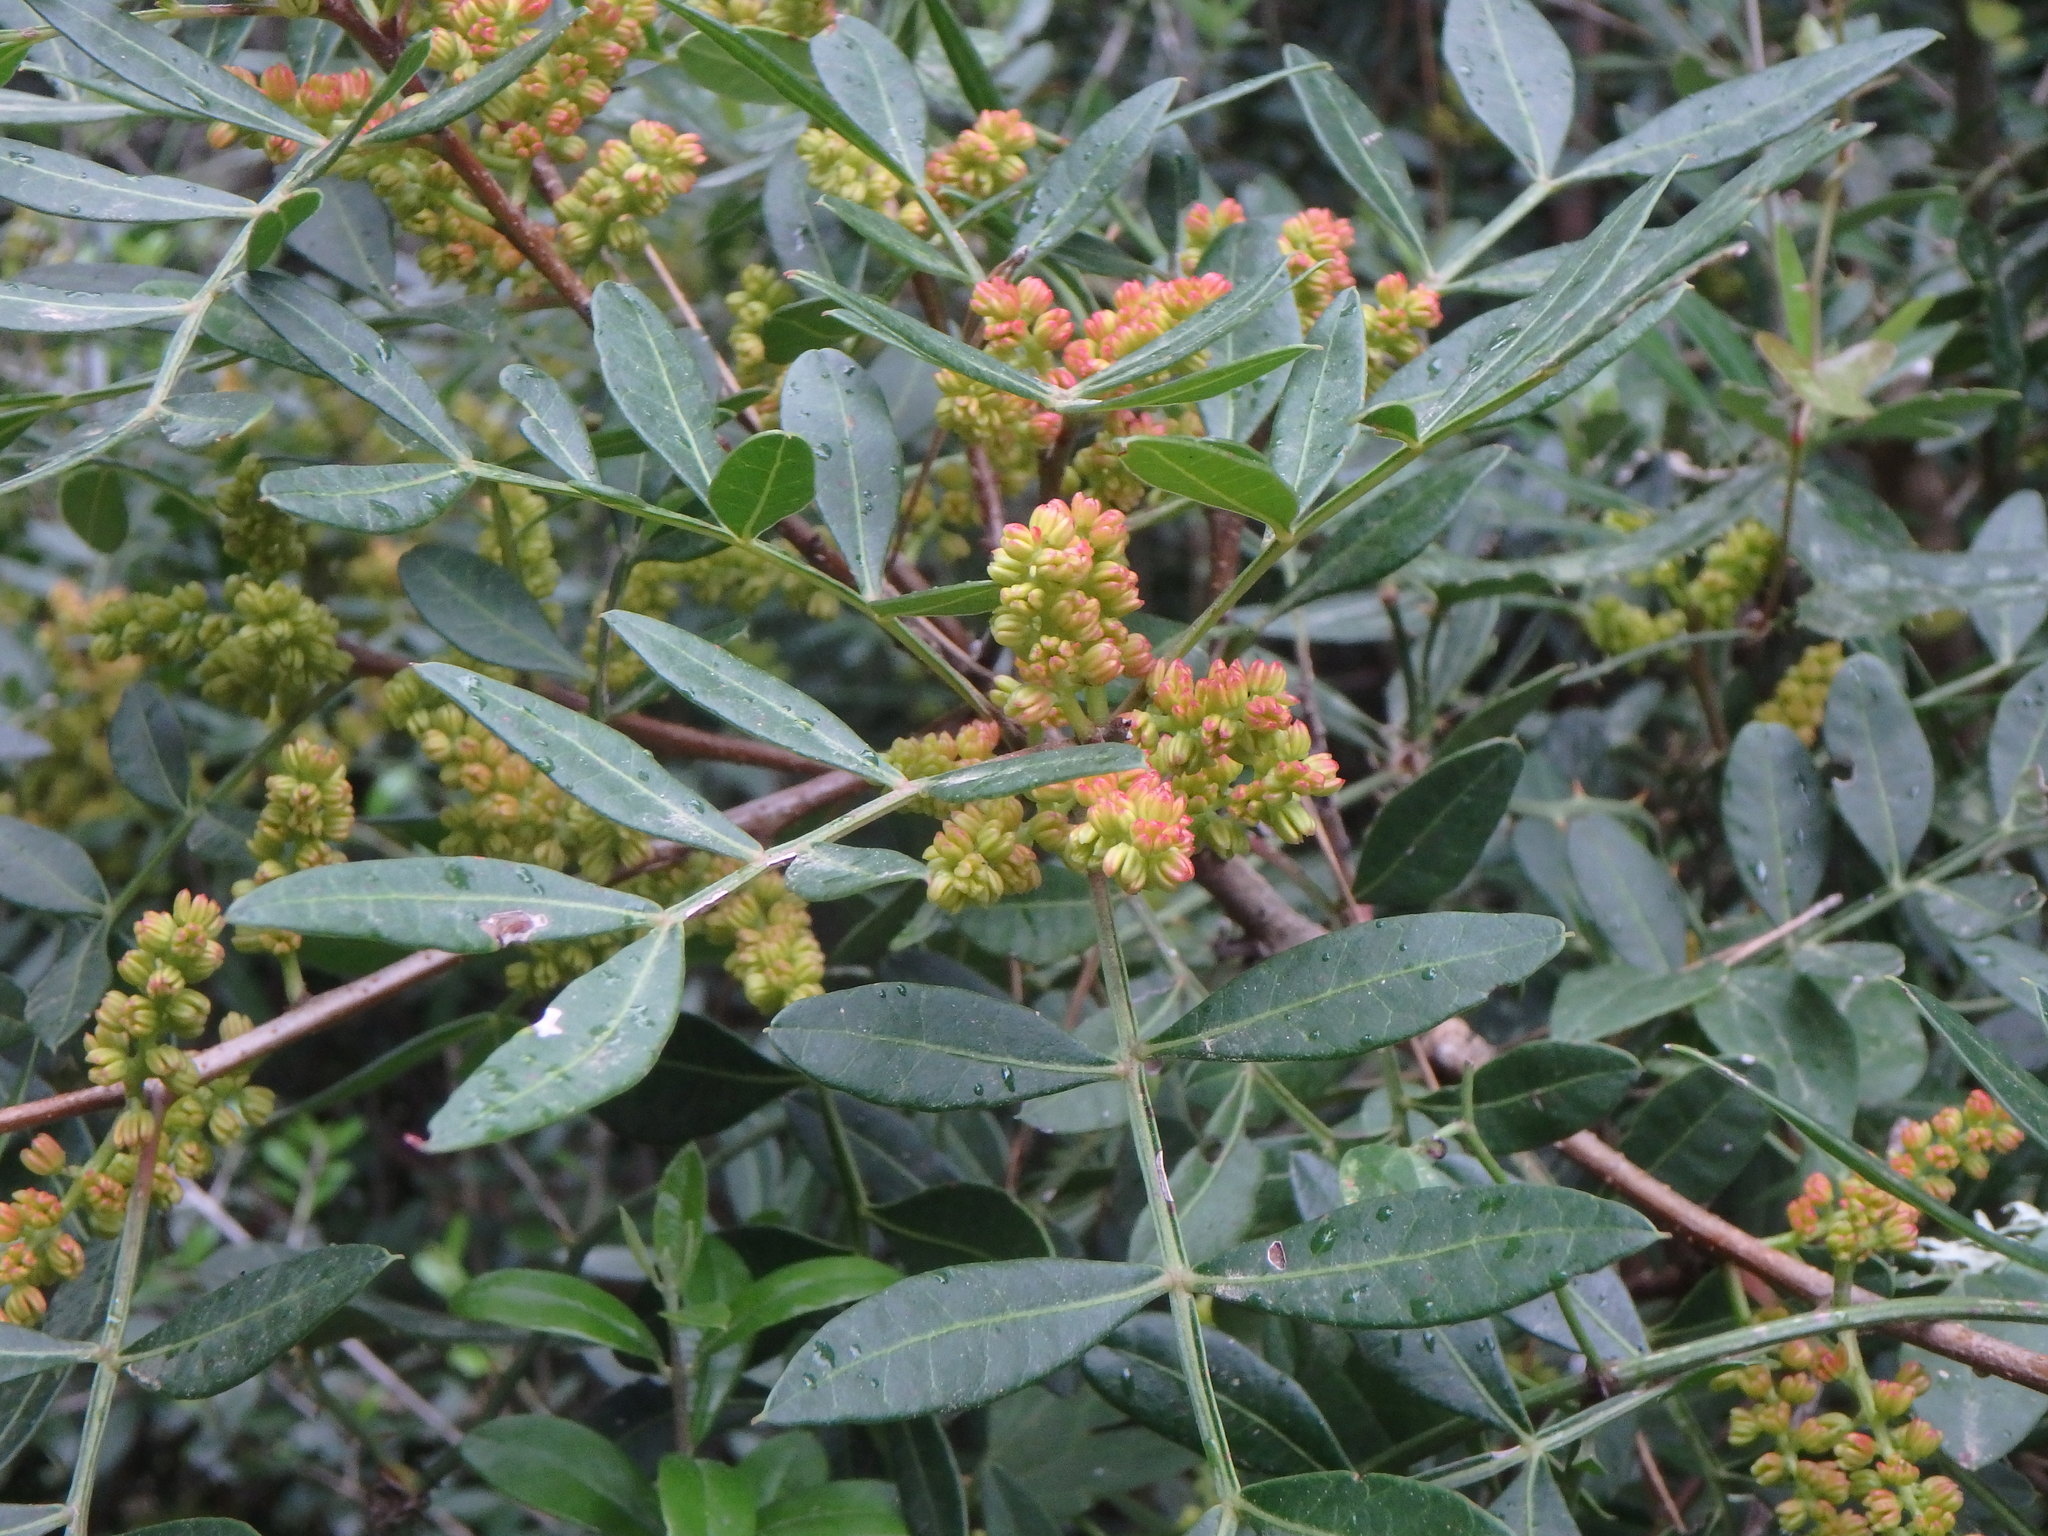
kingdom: Plantae
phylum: Tracheophyta
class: Magnoliopsida
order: Sapindales
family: Anacardiaceae
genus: Pistacia
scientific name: Pistacia lentiscus
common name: Lentisk
